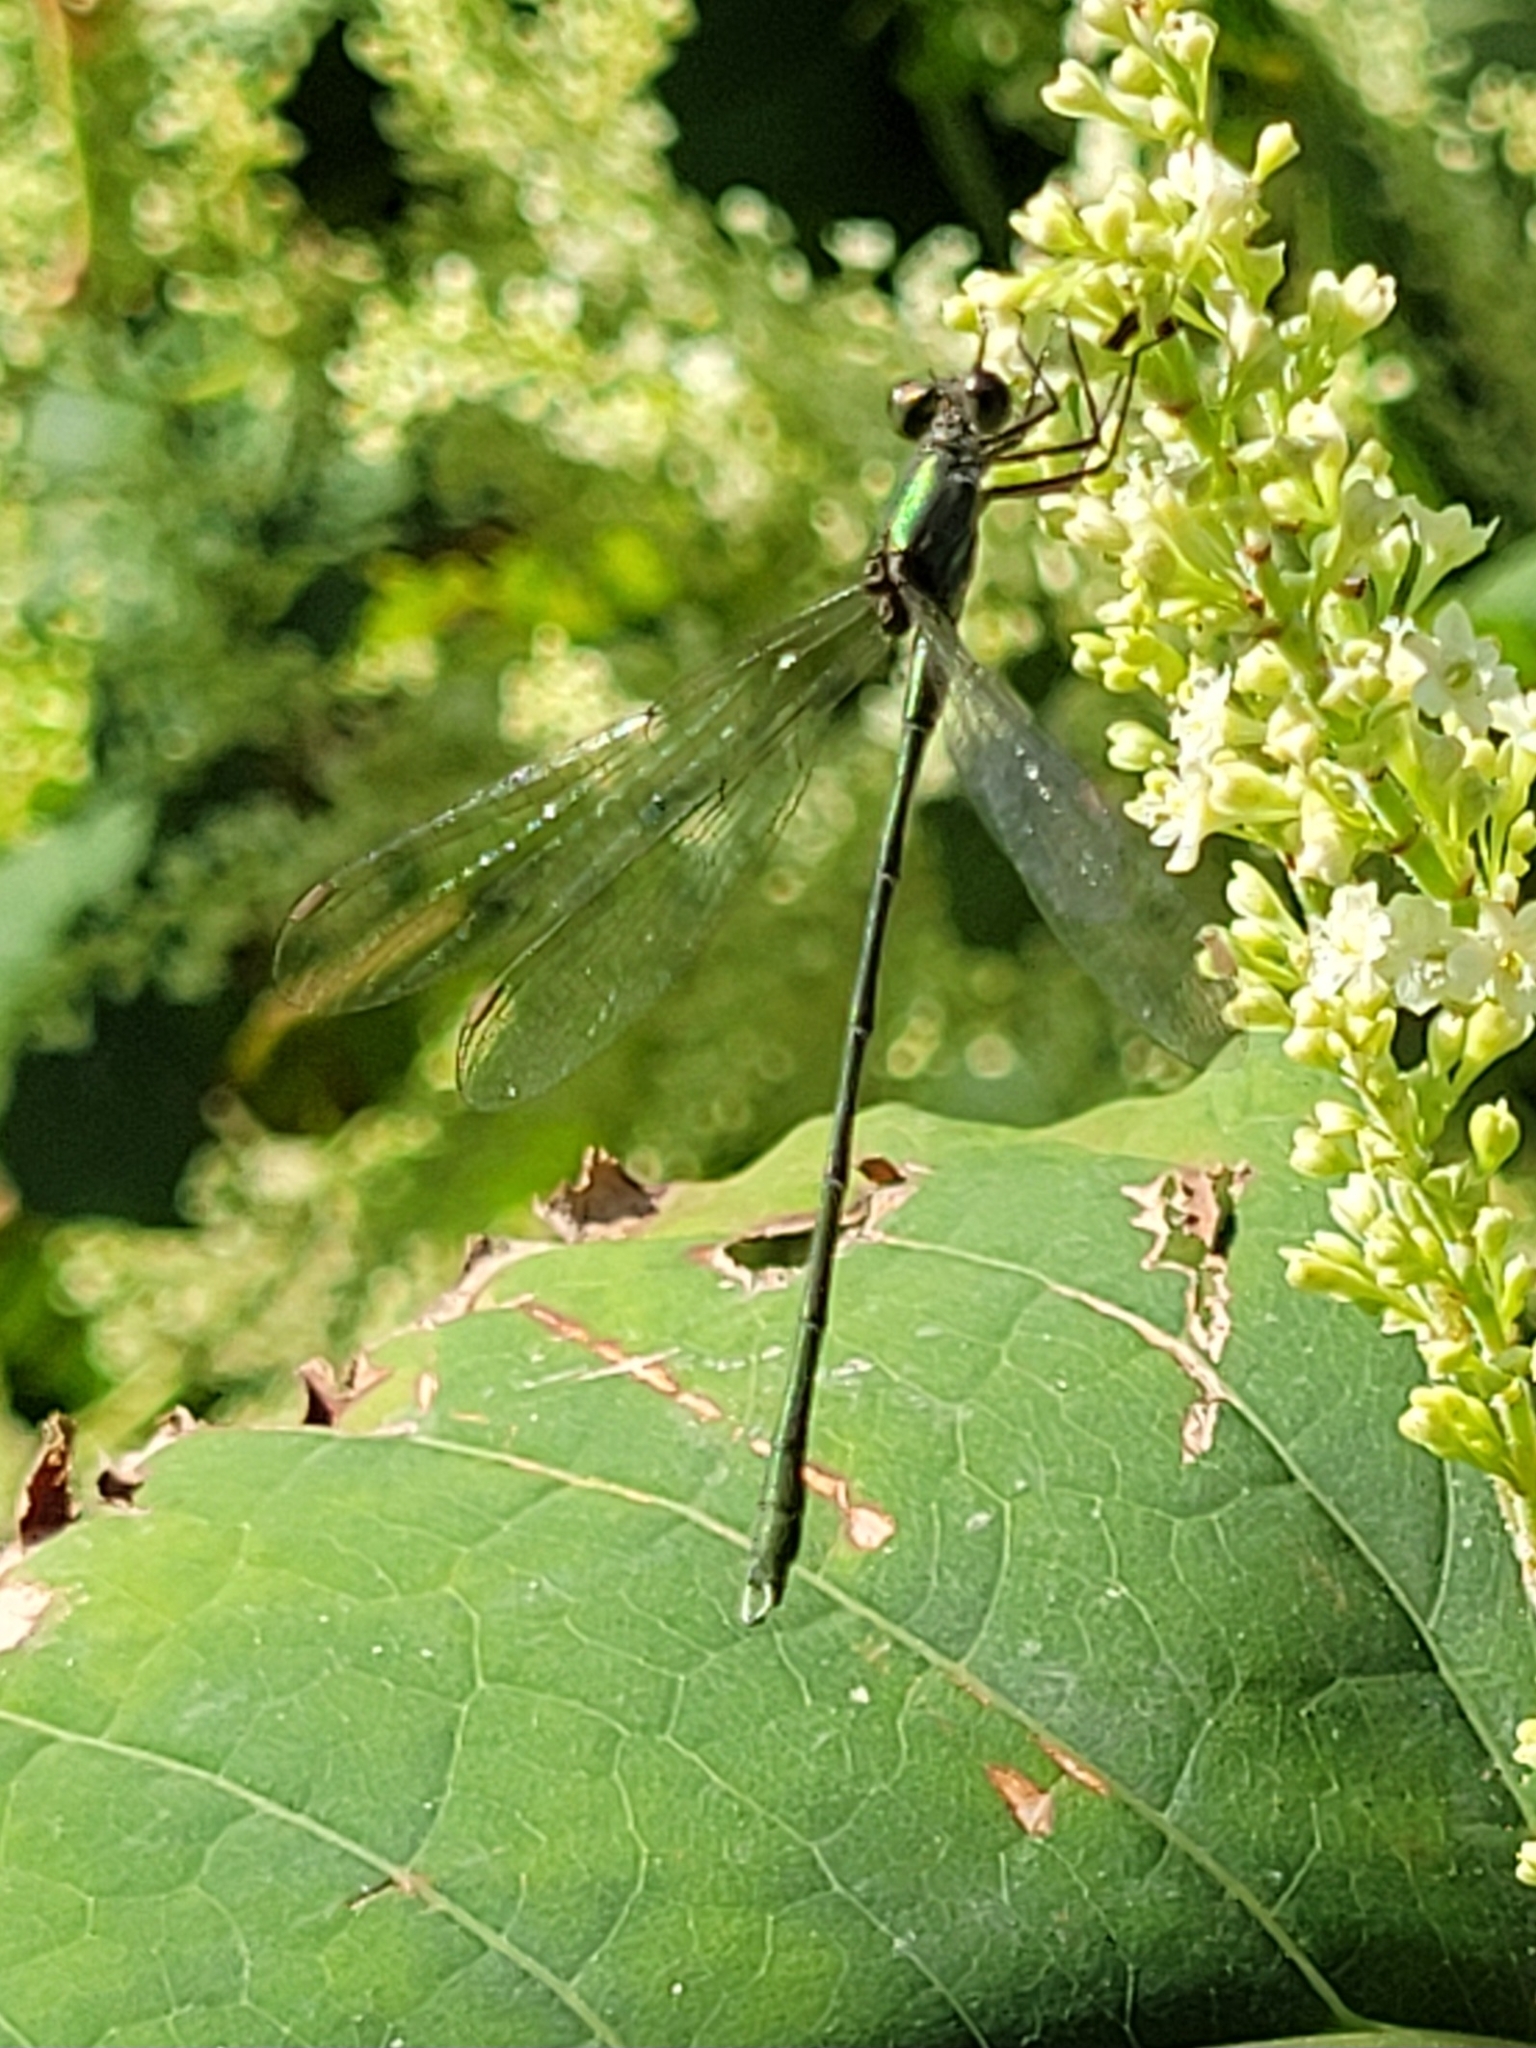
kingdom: Animalia
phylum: Arthropoda
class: Insecta
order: Odonata
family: Lestidae
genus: Chalcolestes
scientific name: Chalcolestes viridis
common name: Green emerald damselfly
